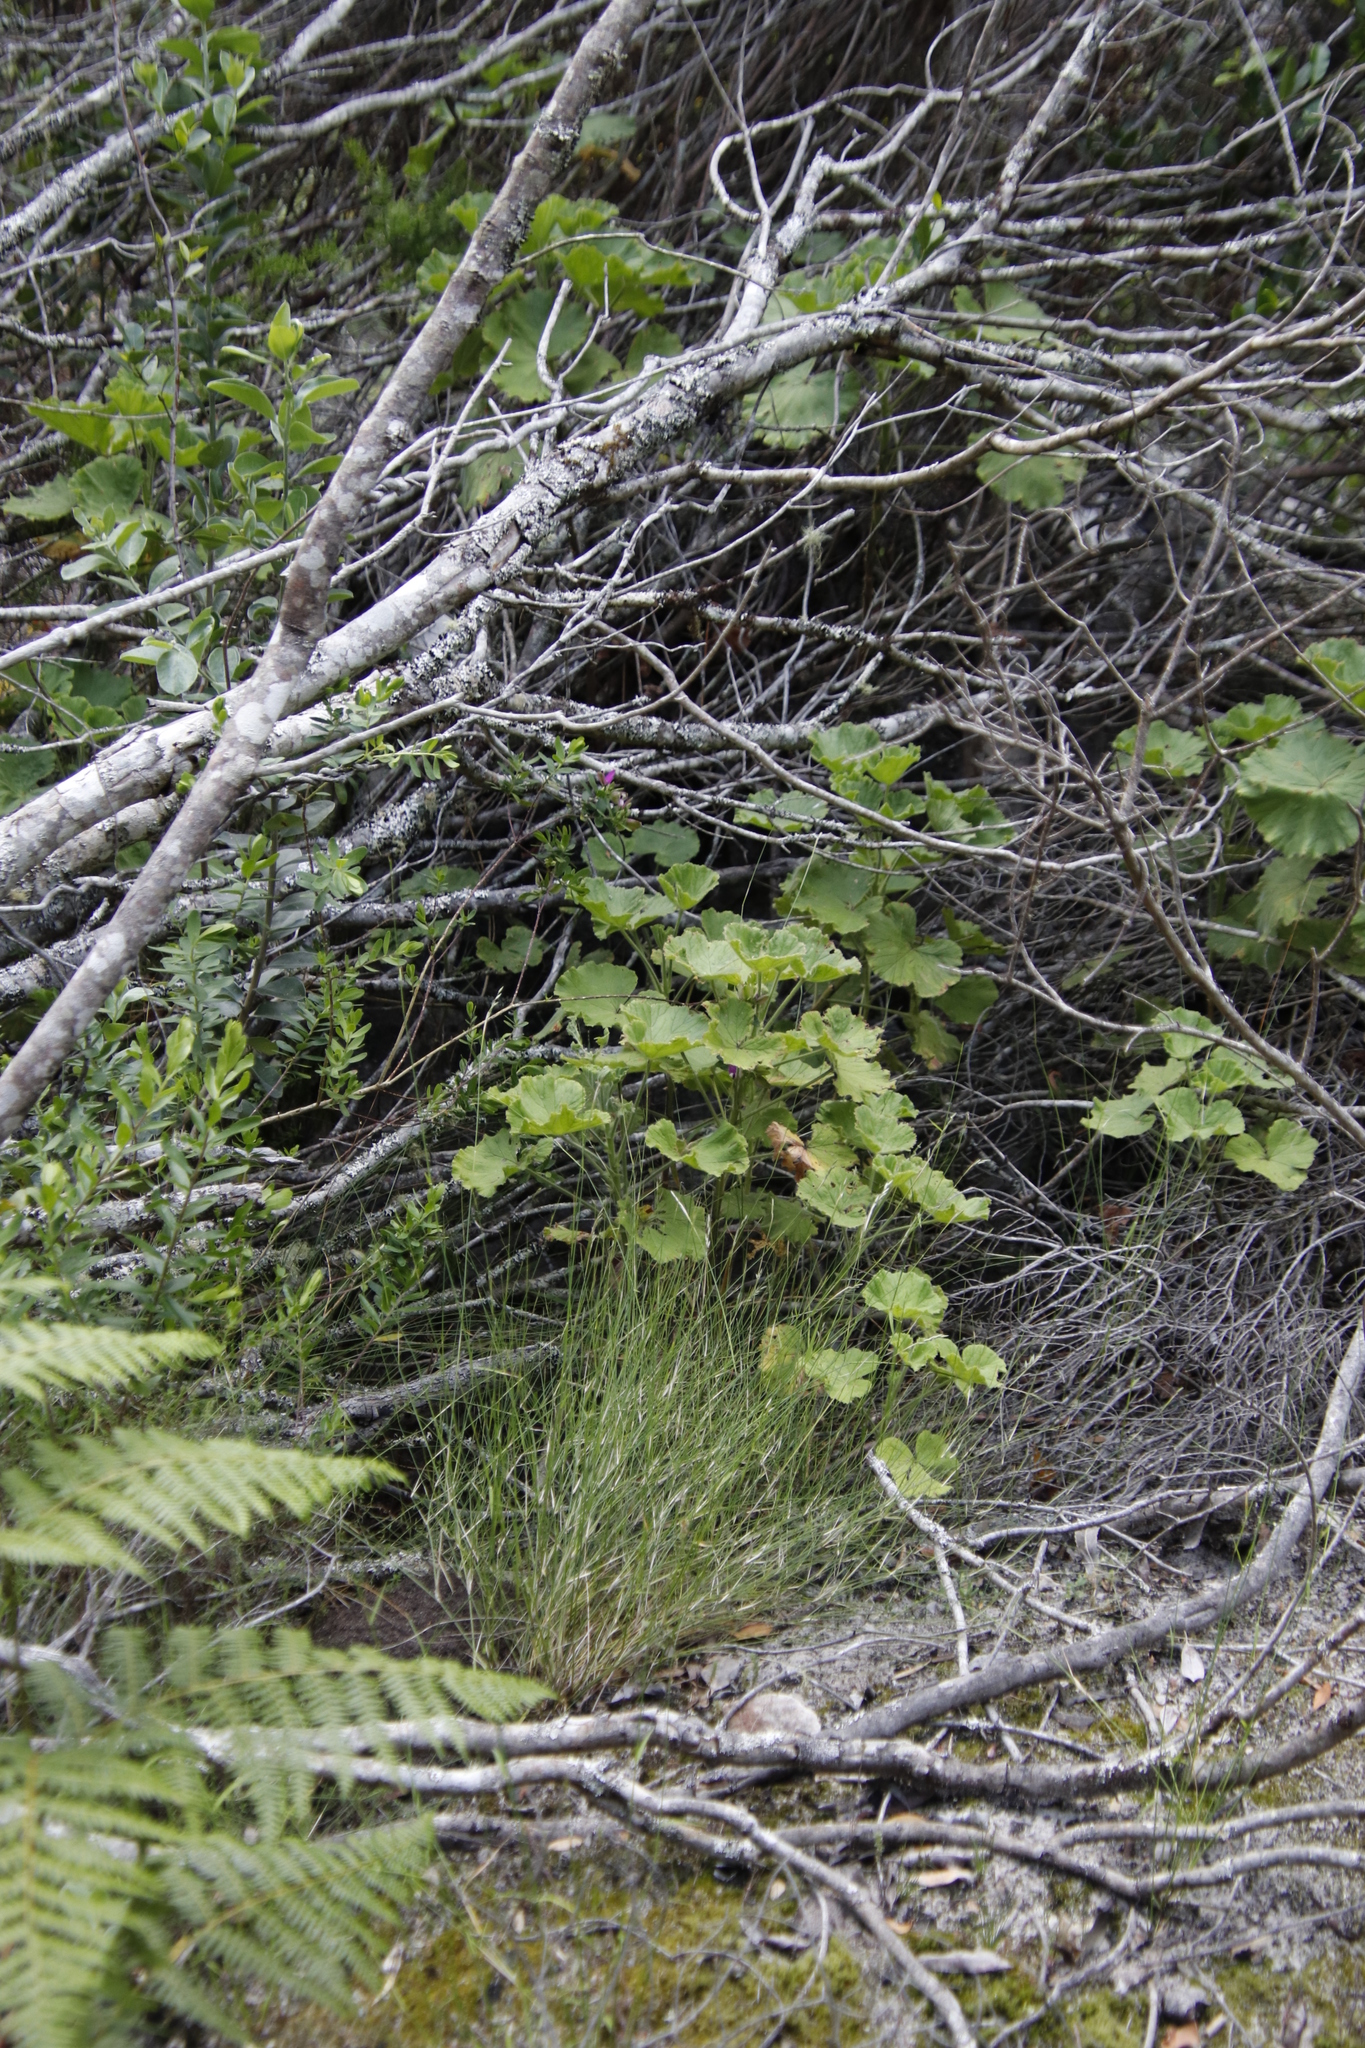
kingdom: Plantae
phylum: Tracheophyta
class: Magnoliopsida
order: Geraniales
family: Geraniaceae
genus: Pelargonium
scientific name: Pelargonium cucullatum
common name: Tree pelargonium
